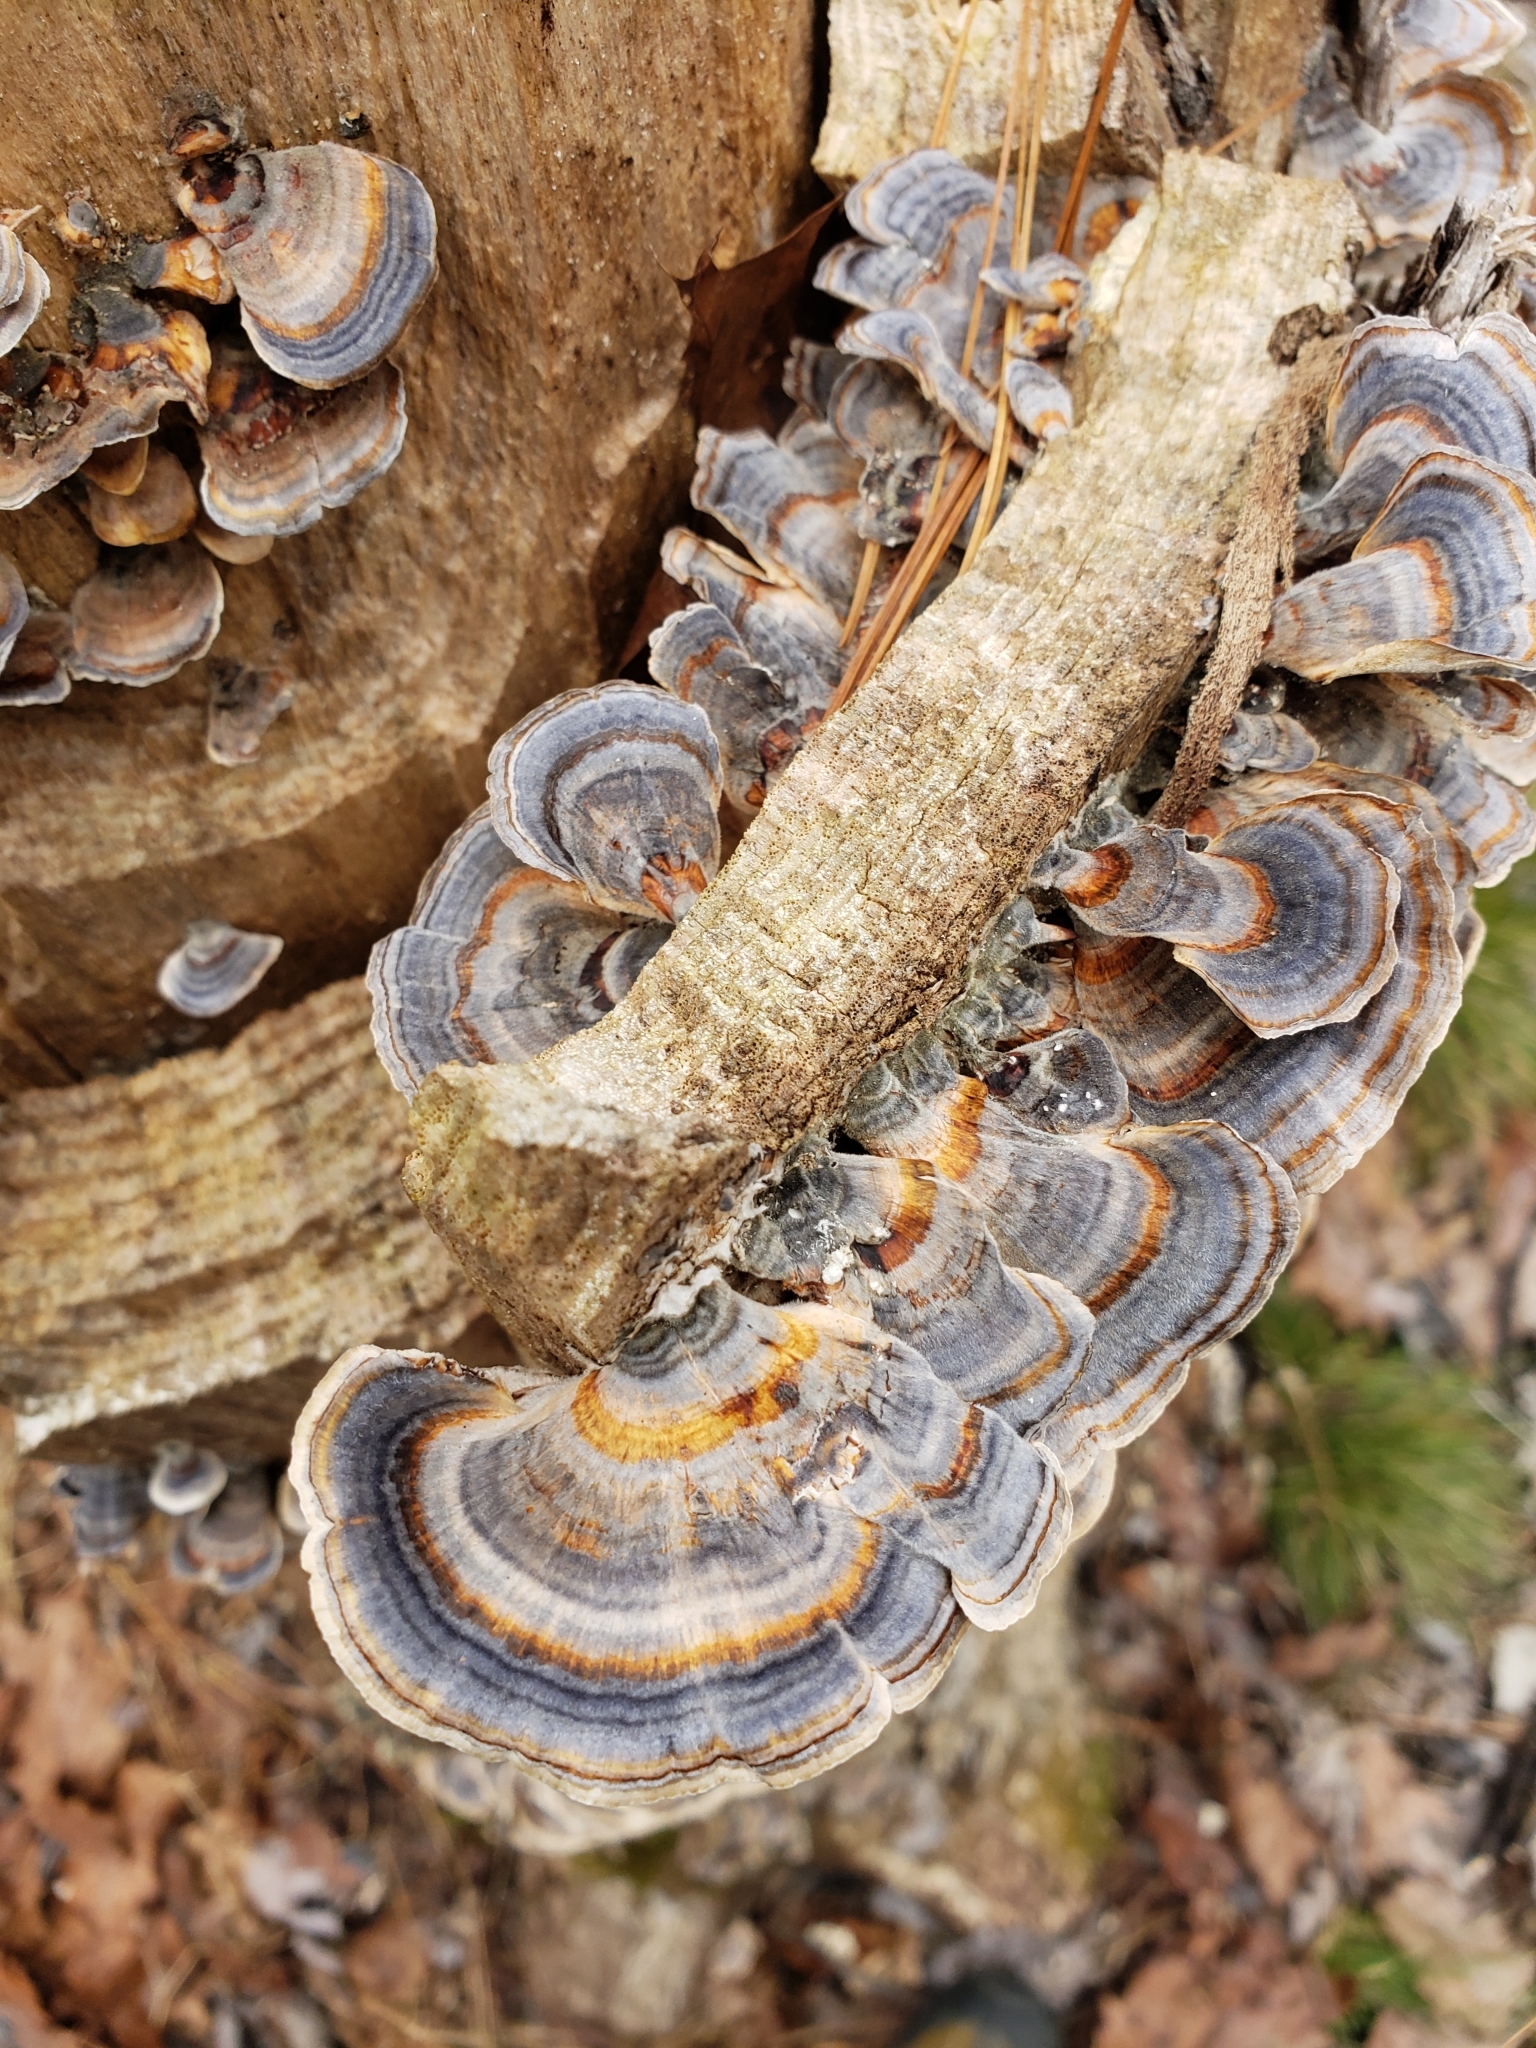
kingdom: Fungi
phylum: Basidiomycota
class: Agaricomycetes
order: Polyporales
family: Polyporaceae
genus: Trametes
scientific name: Trametes versicolor
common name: Turkeytail
